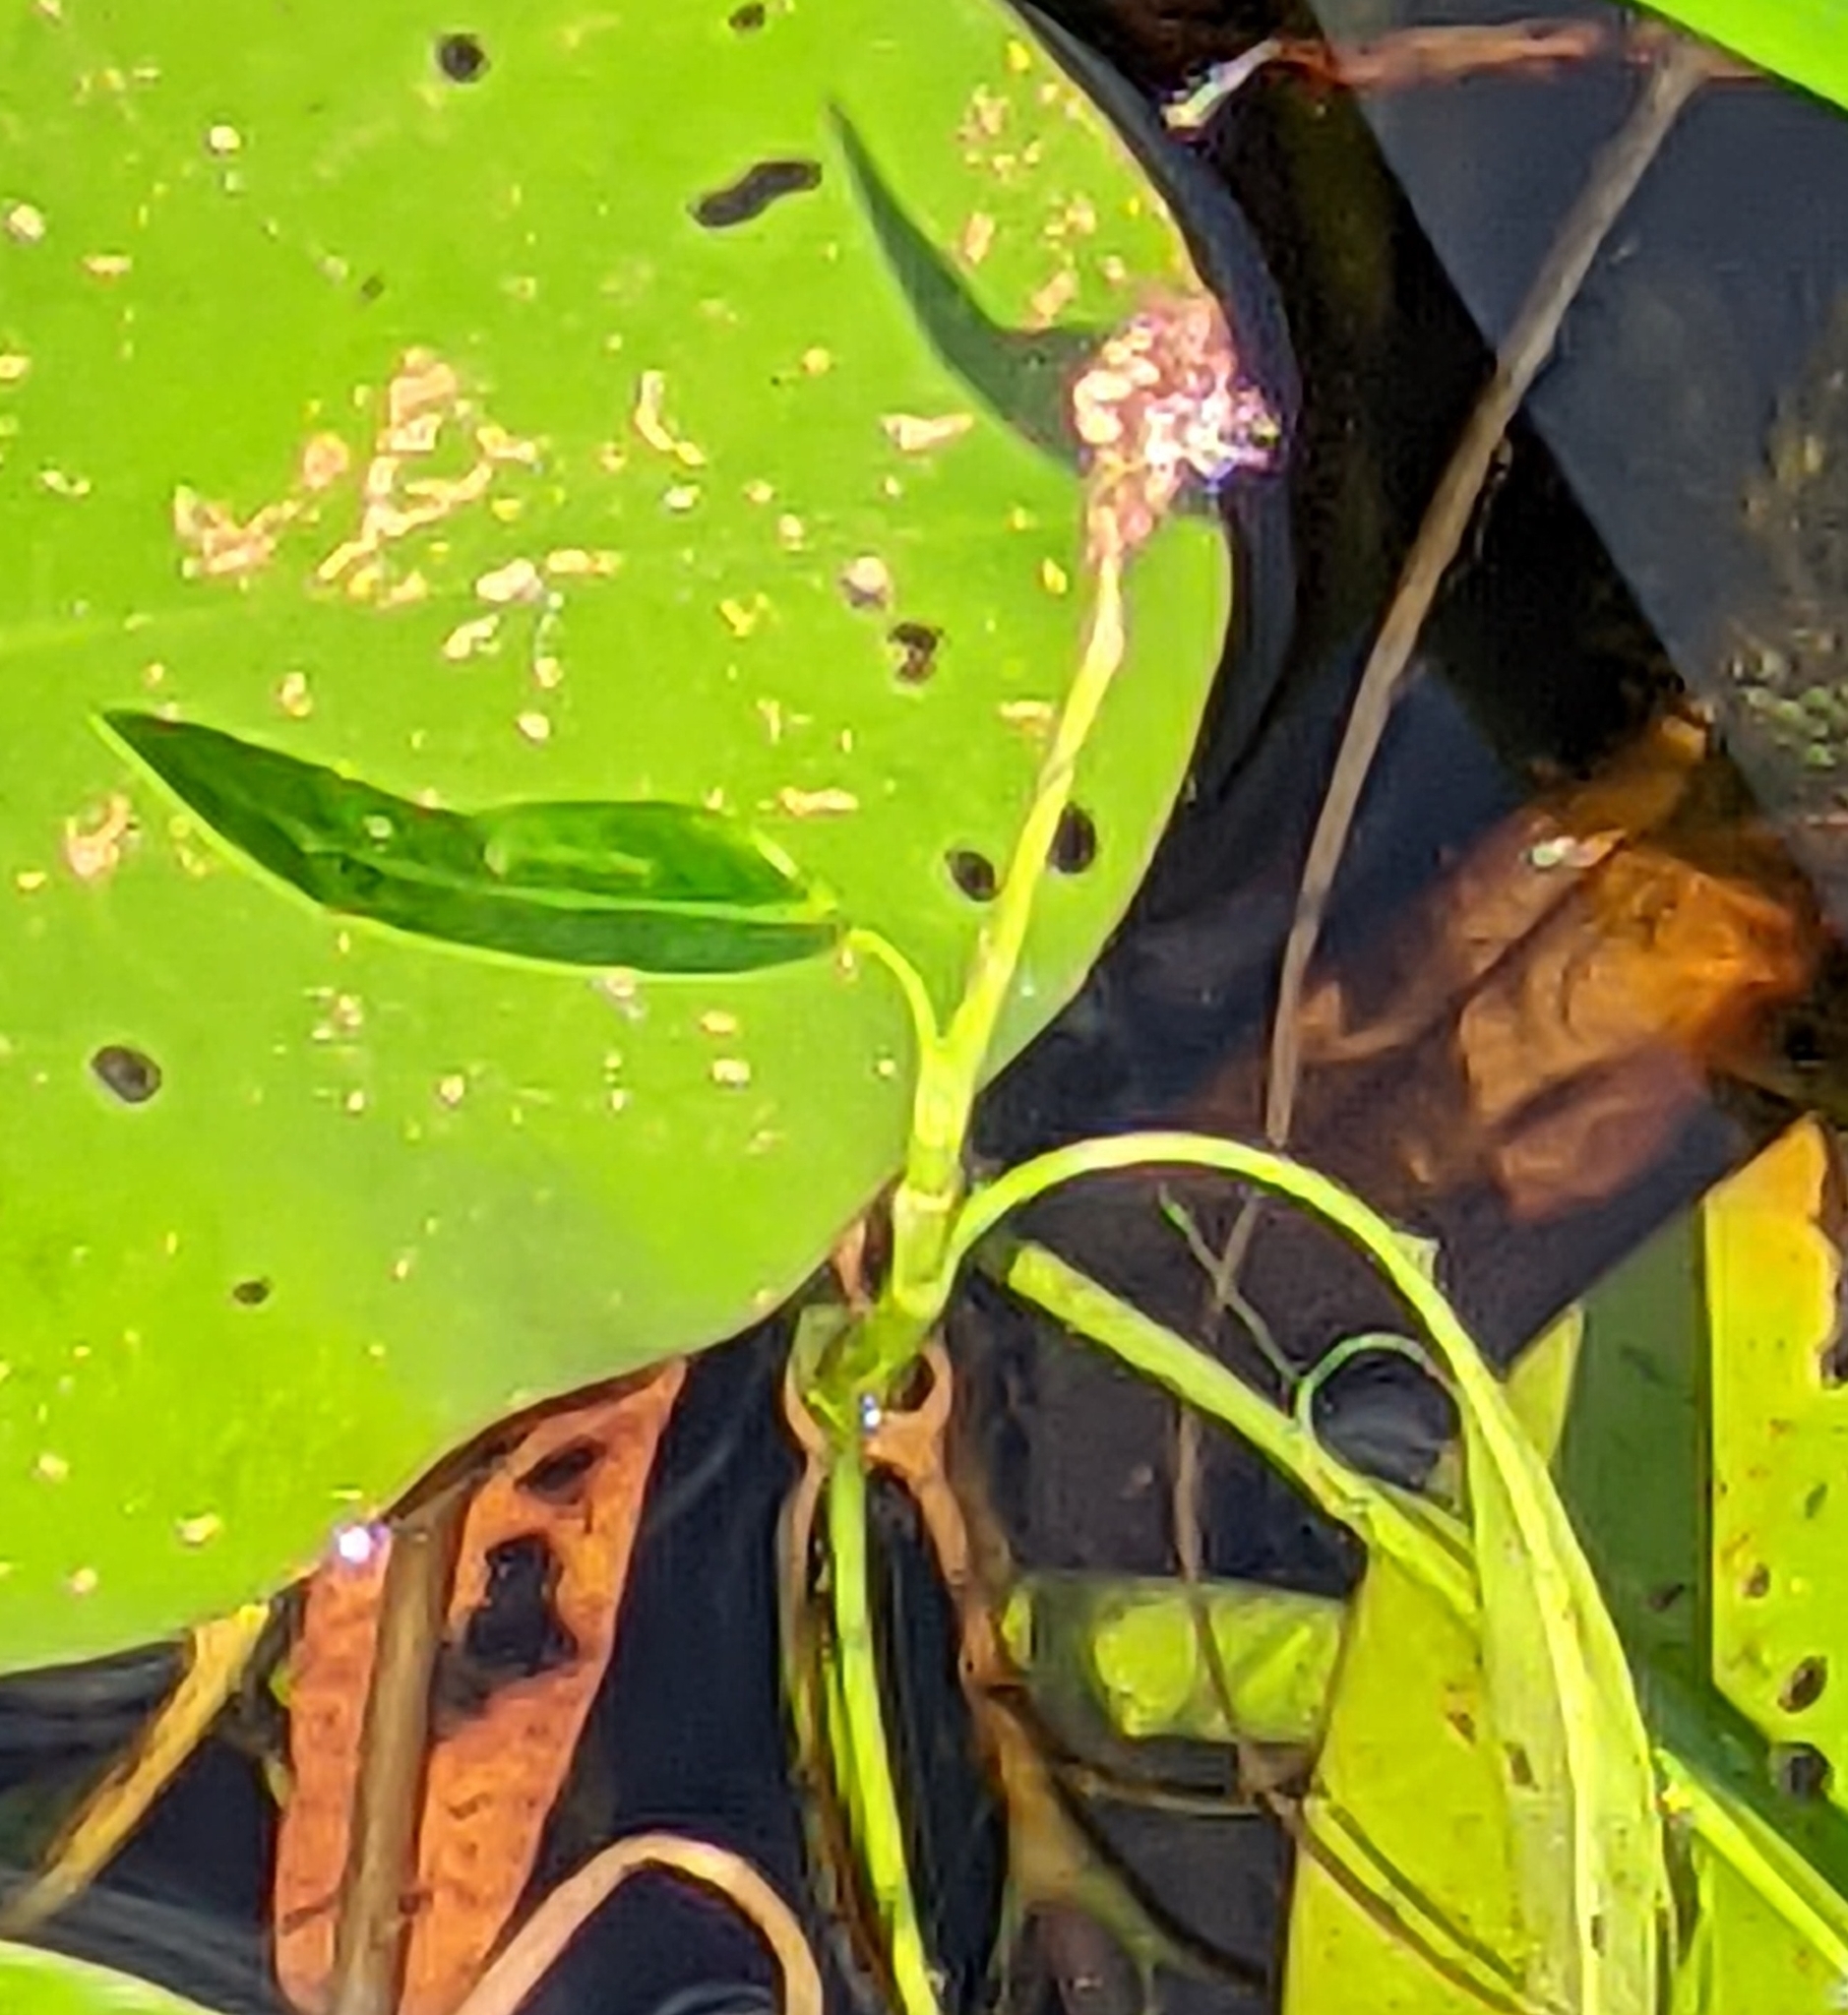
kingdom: Plantae
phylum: Tracheophyta
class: Magnoliopsida
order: Caryophyllales
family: Polygonaceae
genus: Persicaria
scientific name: Persicaria amphibia
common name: Amphibious bistort
